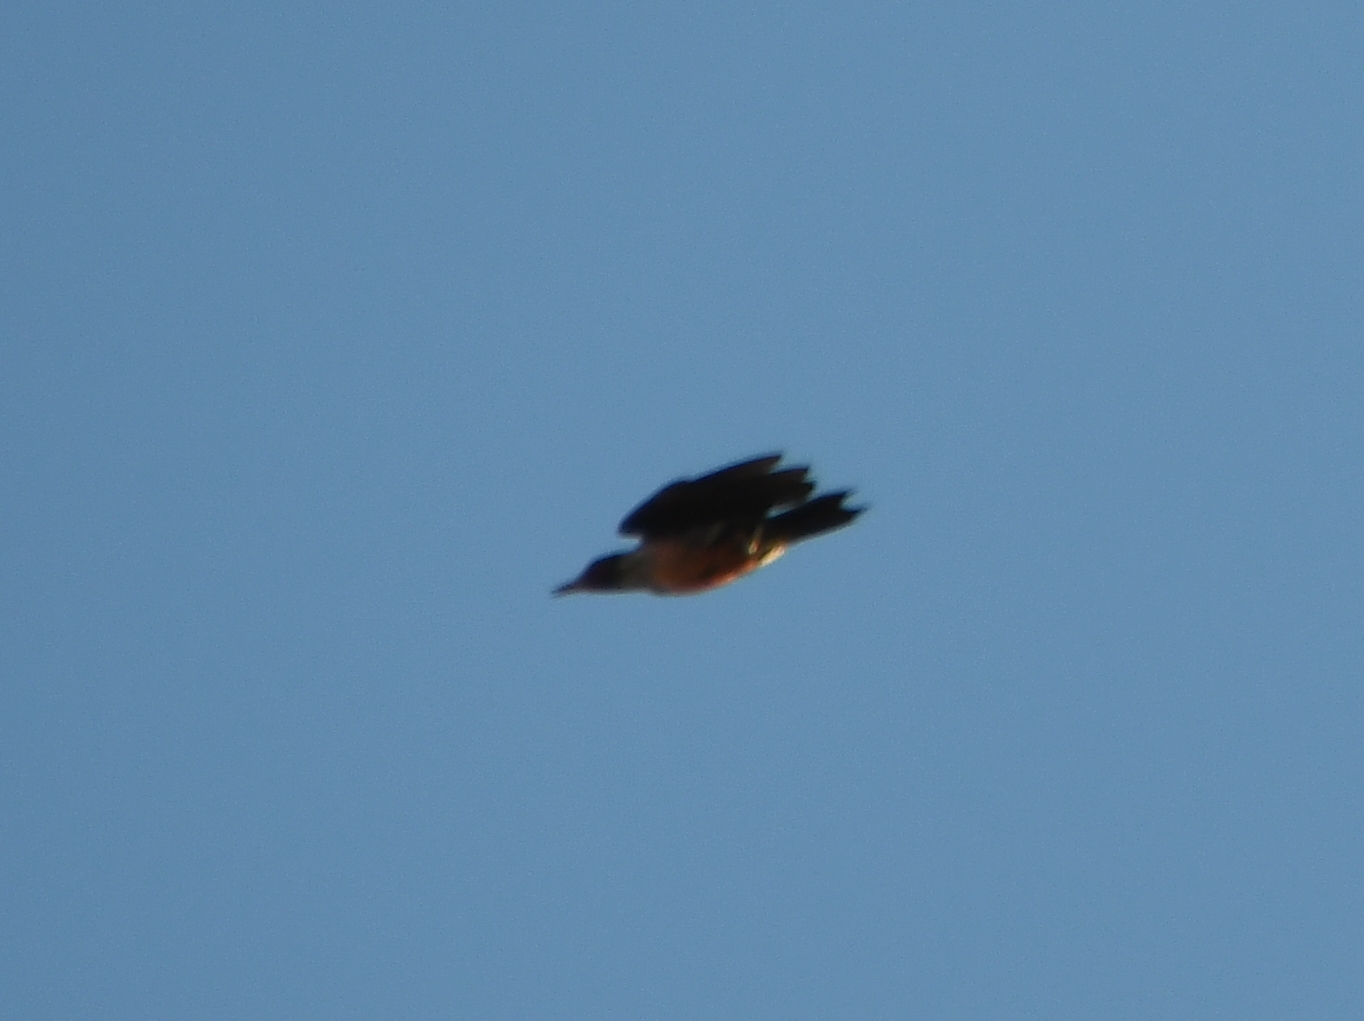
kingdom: Animalia
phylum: Chordata
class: Aves
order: Piciformes
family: Picidae
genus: Melanerpes
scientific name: Melanerpes lewis
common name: Lewis's woodpecker
